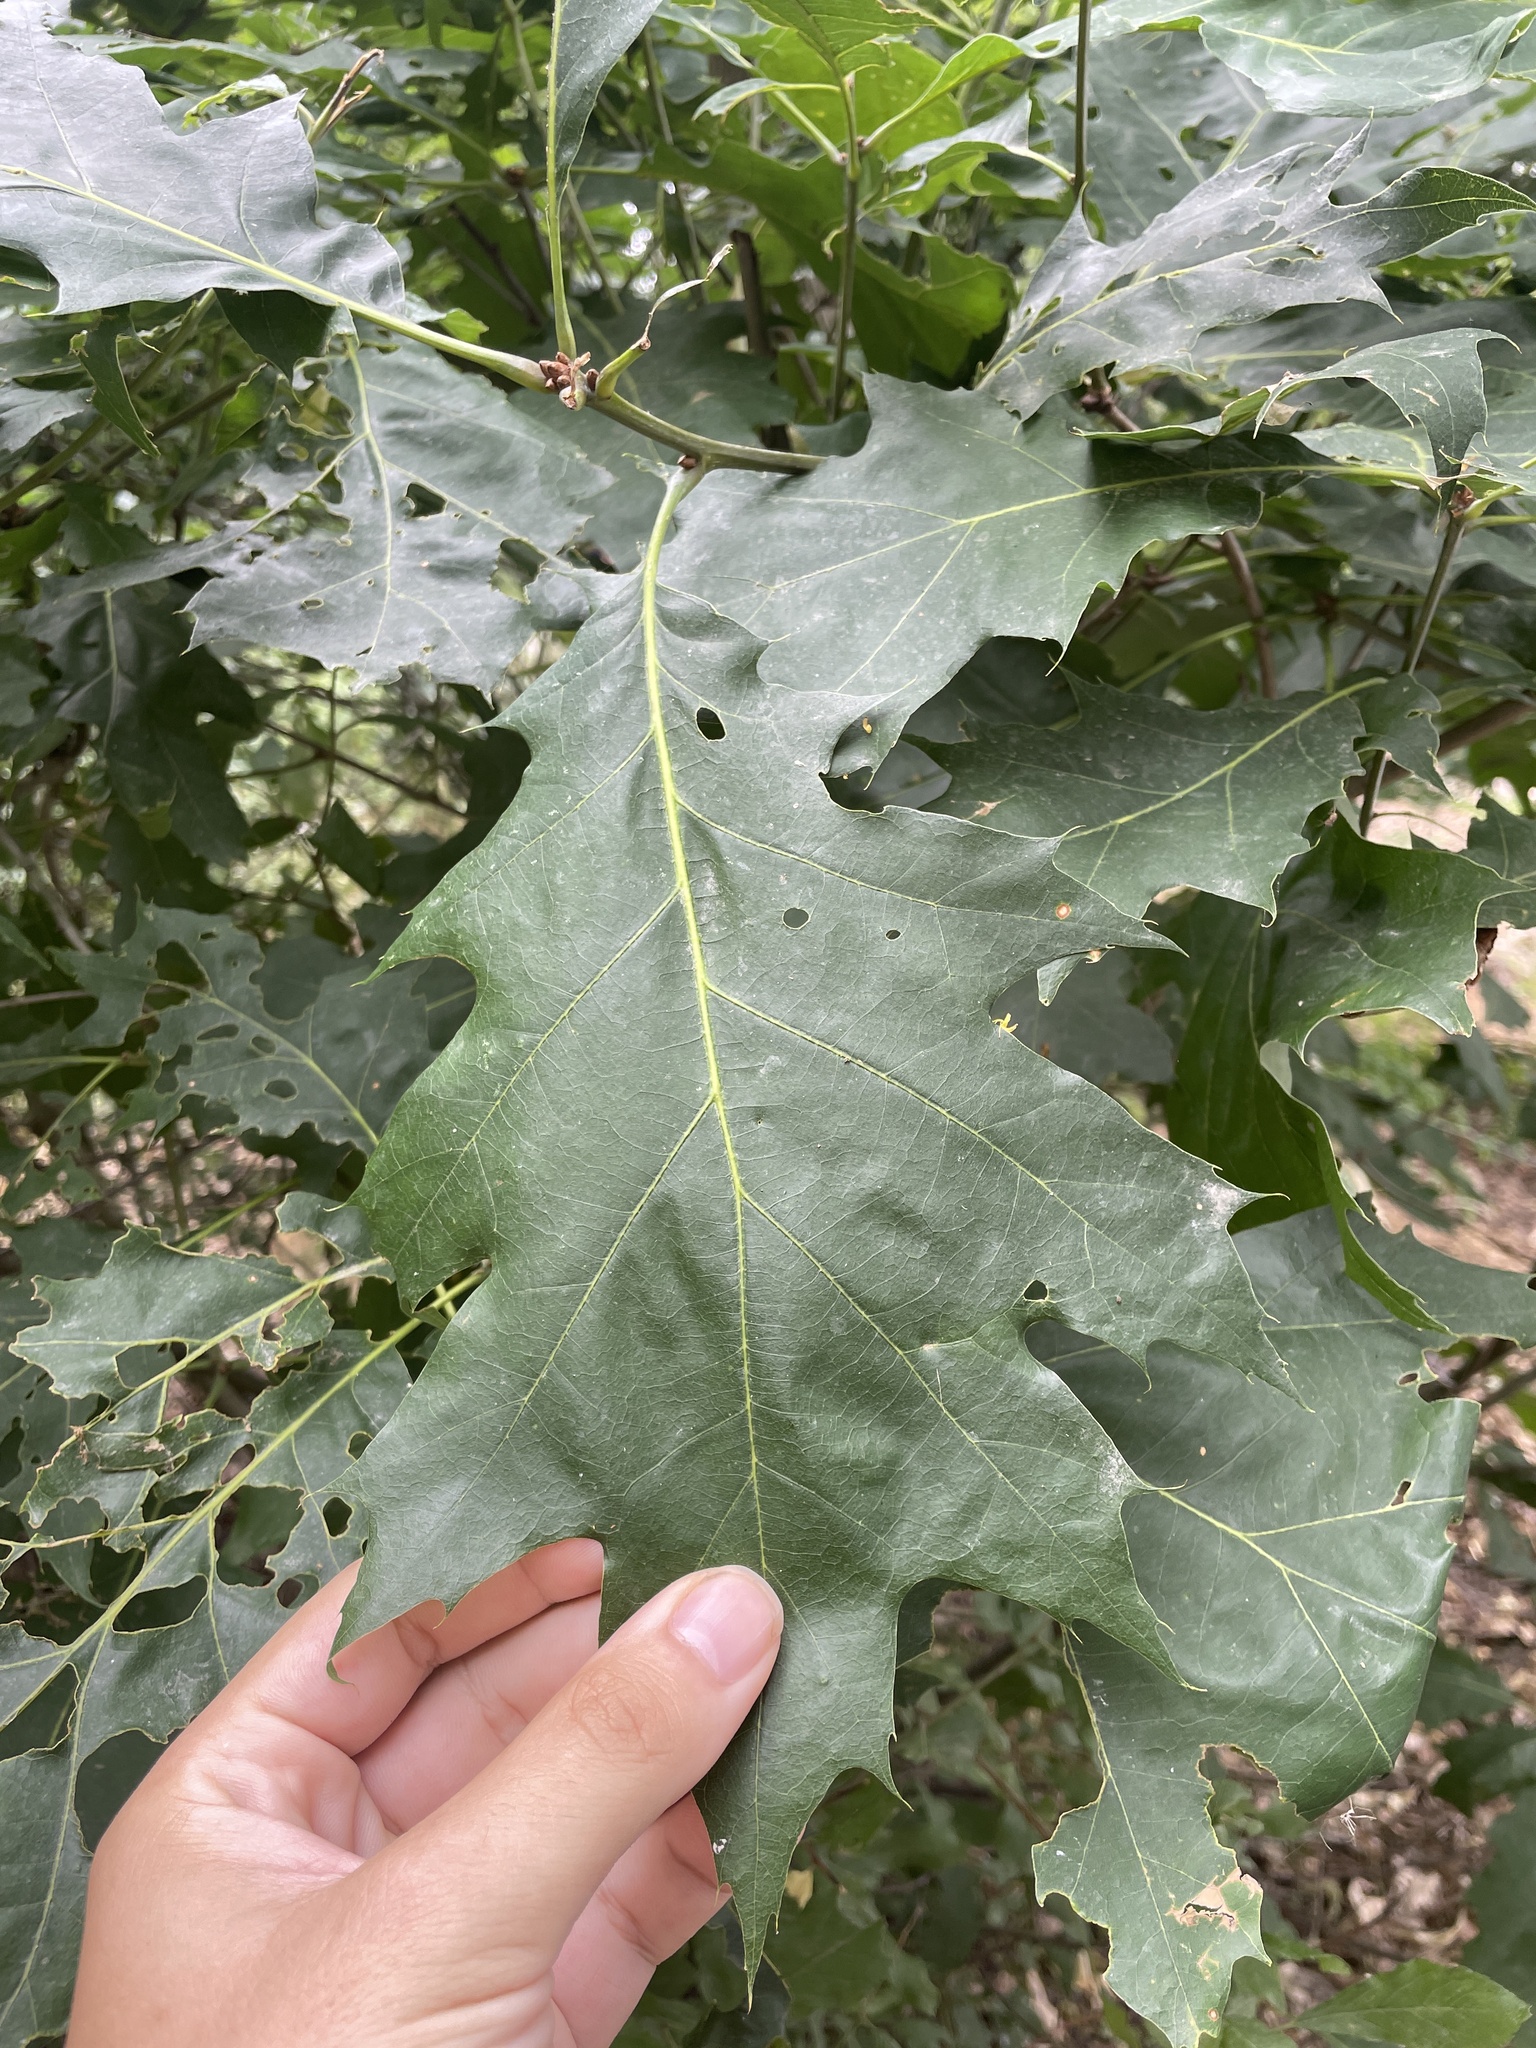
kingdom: Plantae
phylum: Tracheophyta
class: Magnoliopsida
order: Fagales
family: Fagaceae
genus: Quercus
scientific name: Quercus rubra
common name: Red oak
